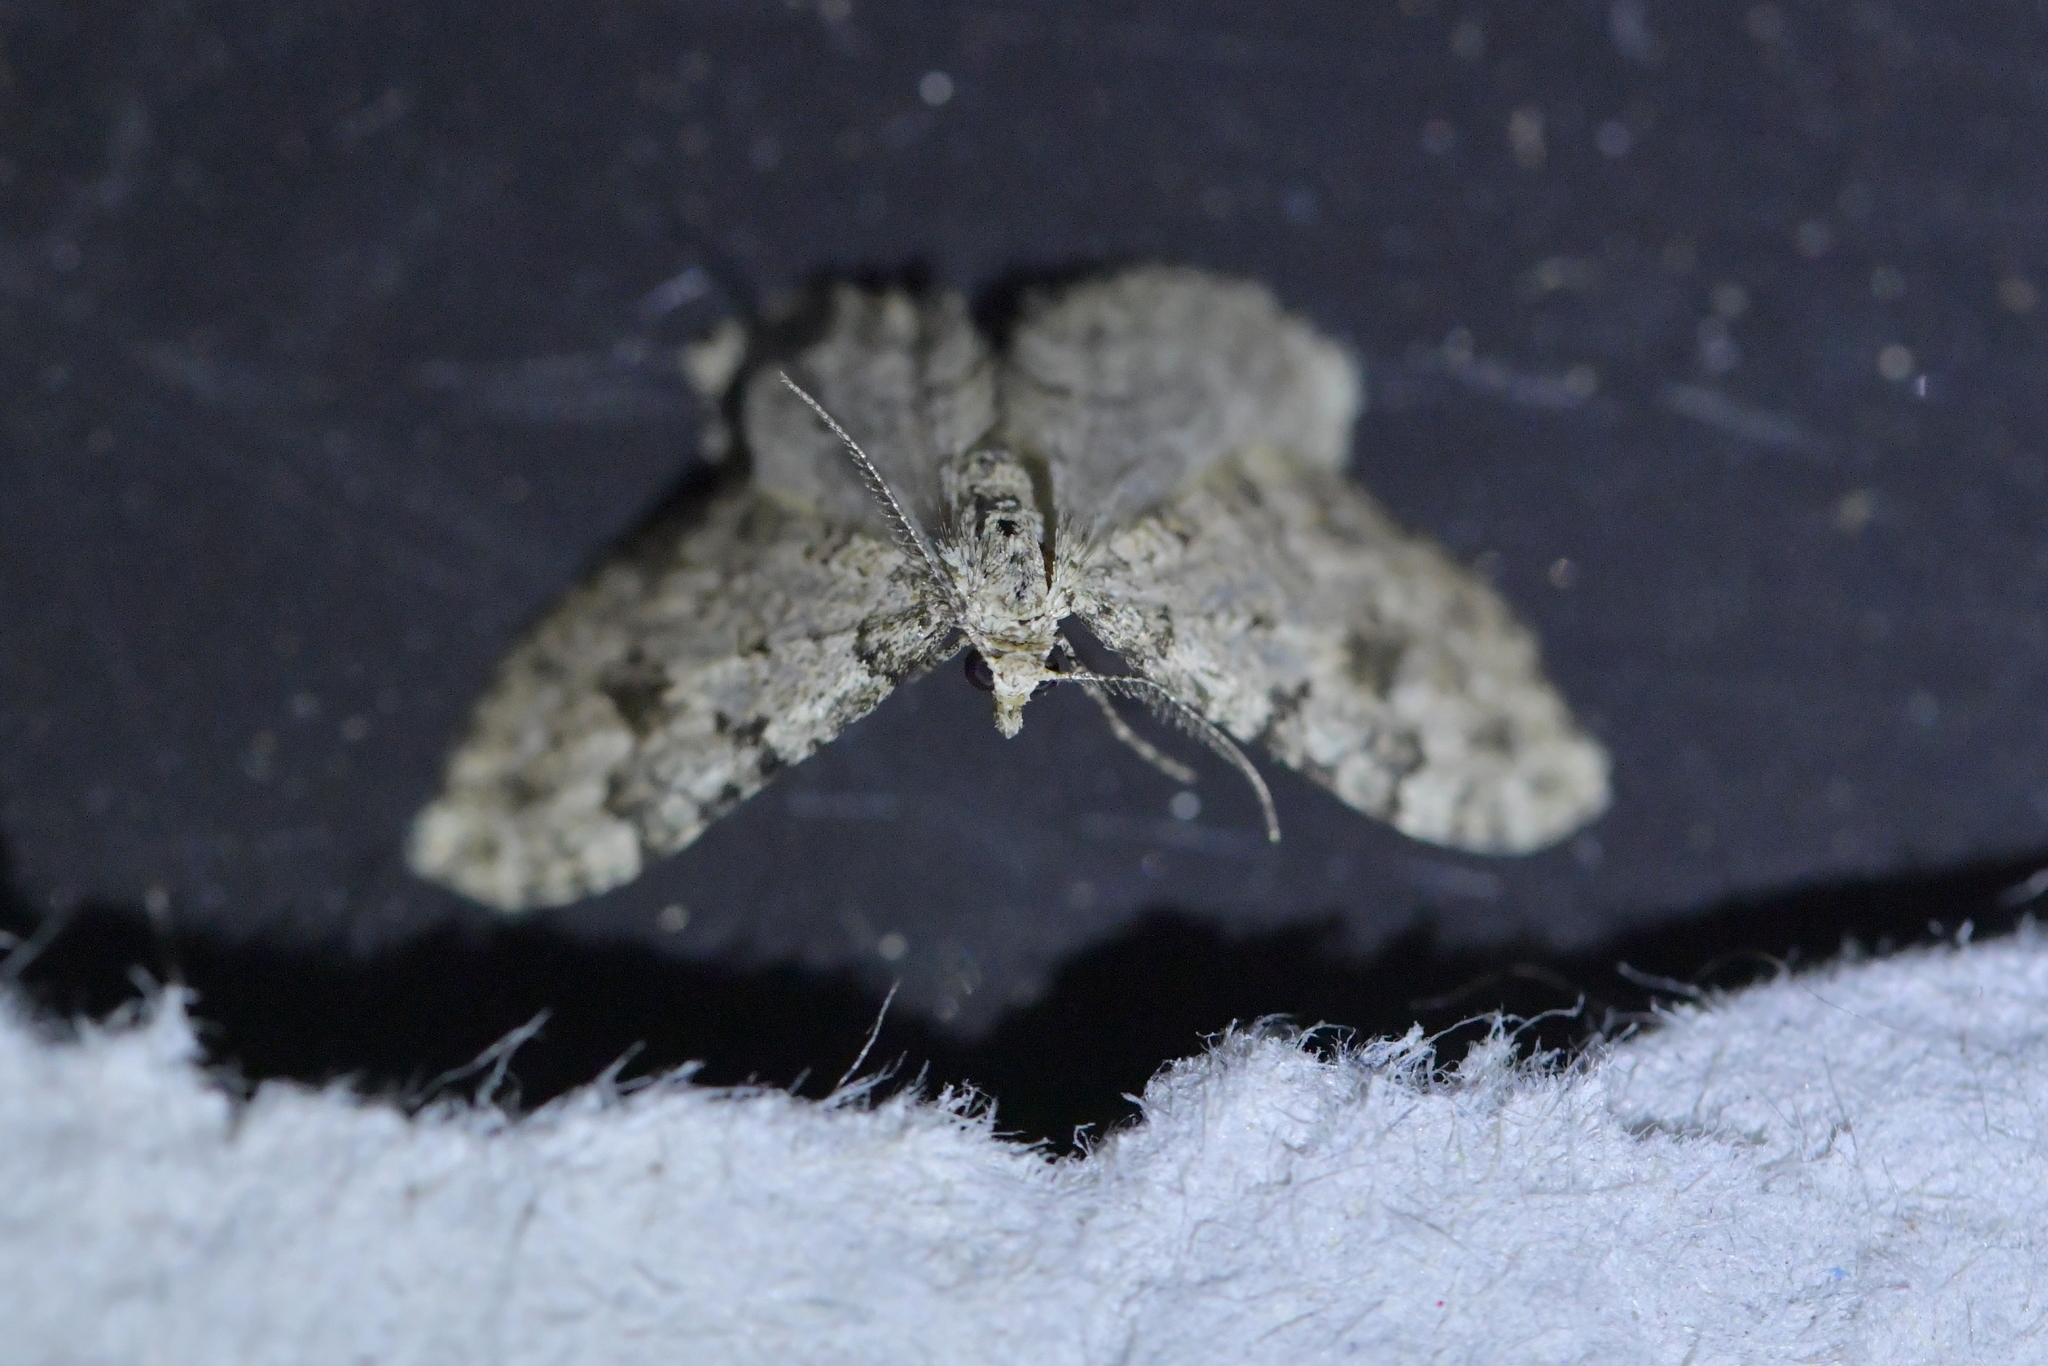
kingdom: Animalia
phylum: Arthropoda
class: Insecta
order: Lepidoptera
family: Geometridae
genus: Helastia
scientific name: Helastia cinerearia
